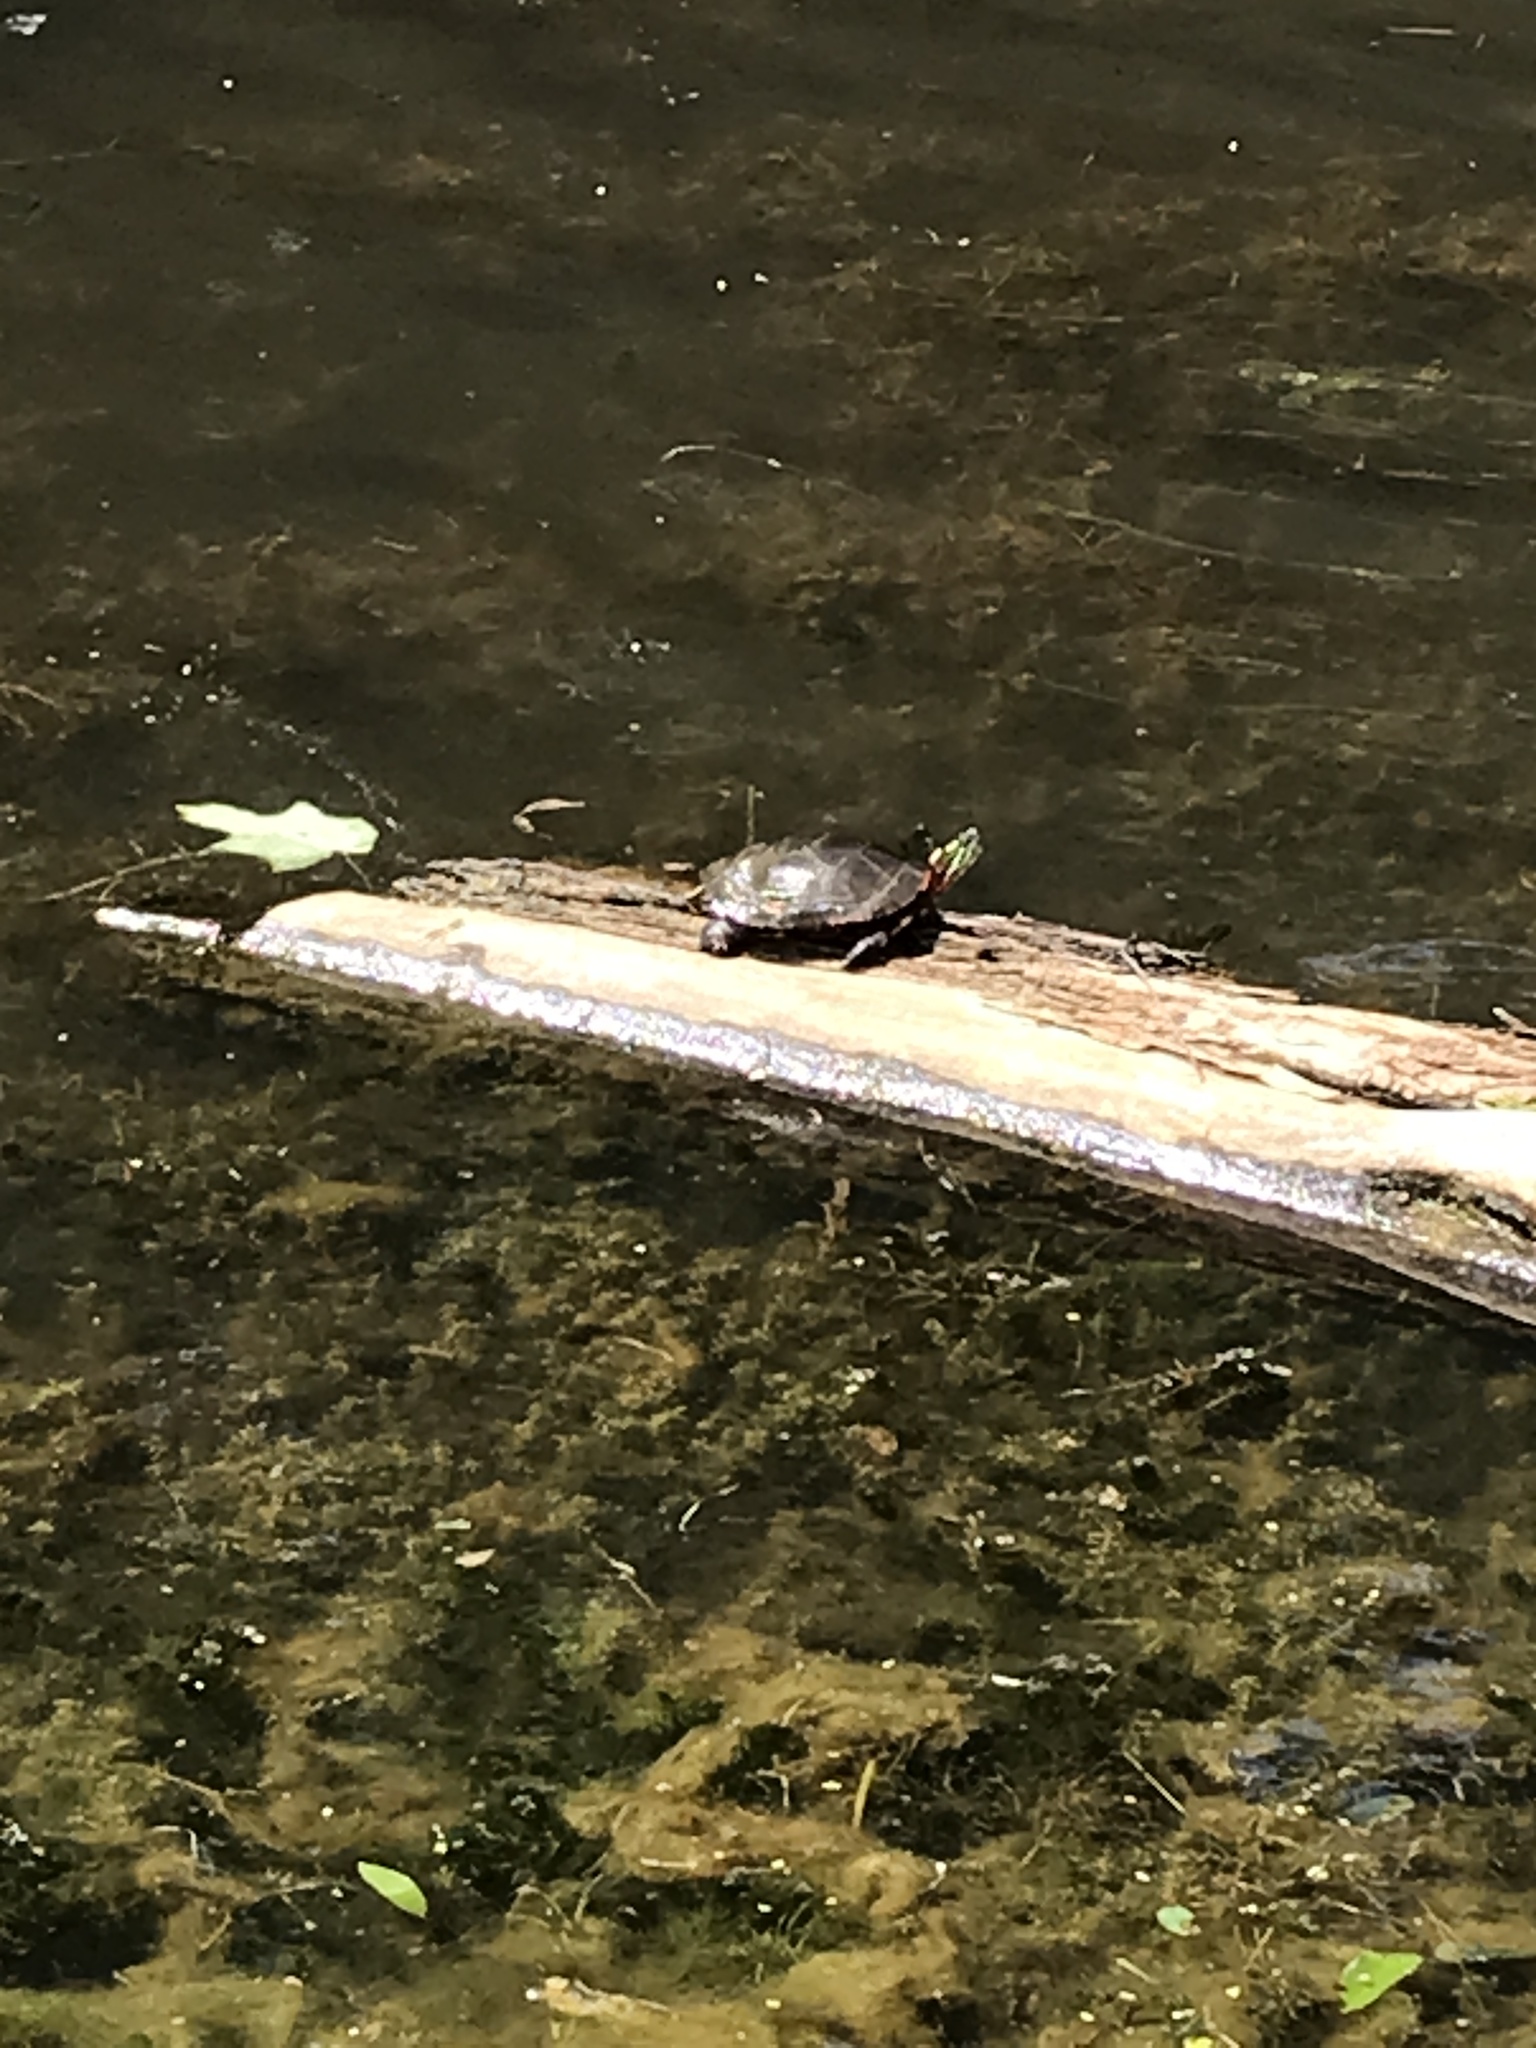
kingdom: Animalia
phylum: Chordata
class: Testudines
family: Emydidae
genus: Chrysemys
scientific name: Chrysemys picta
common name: Painted turtle
